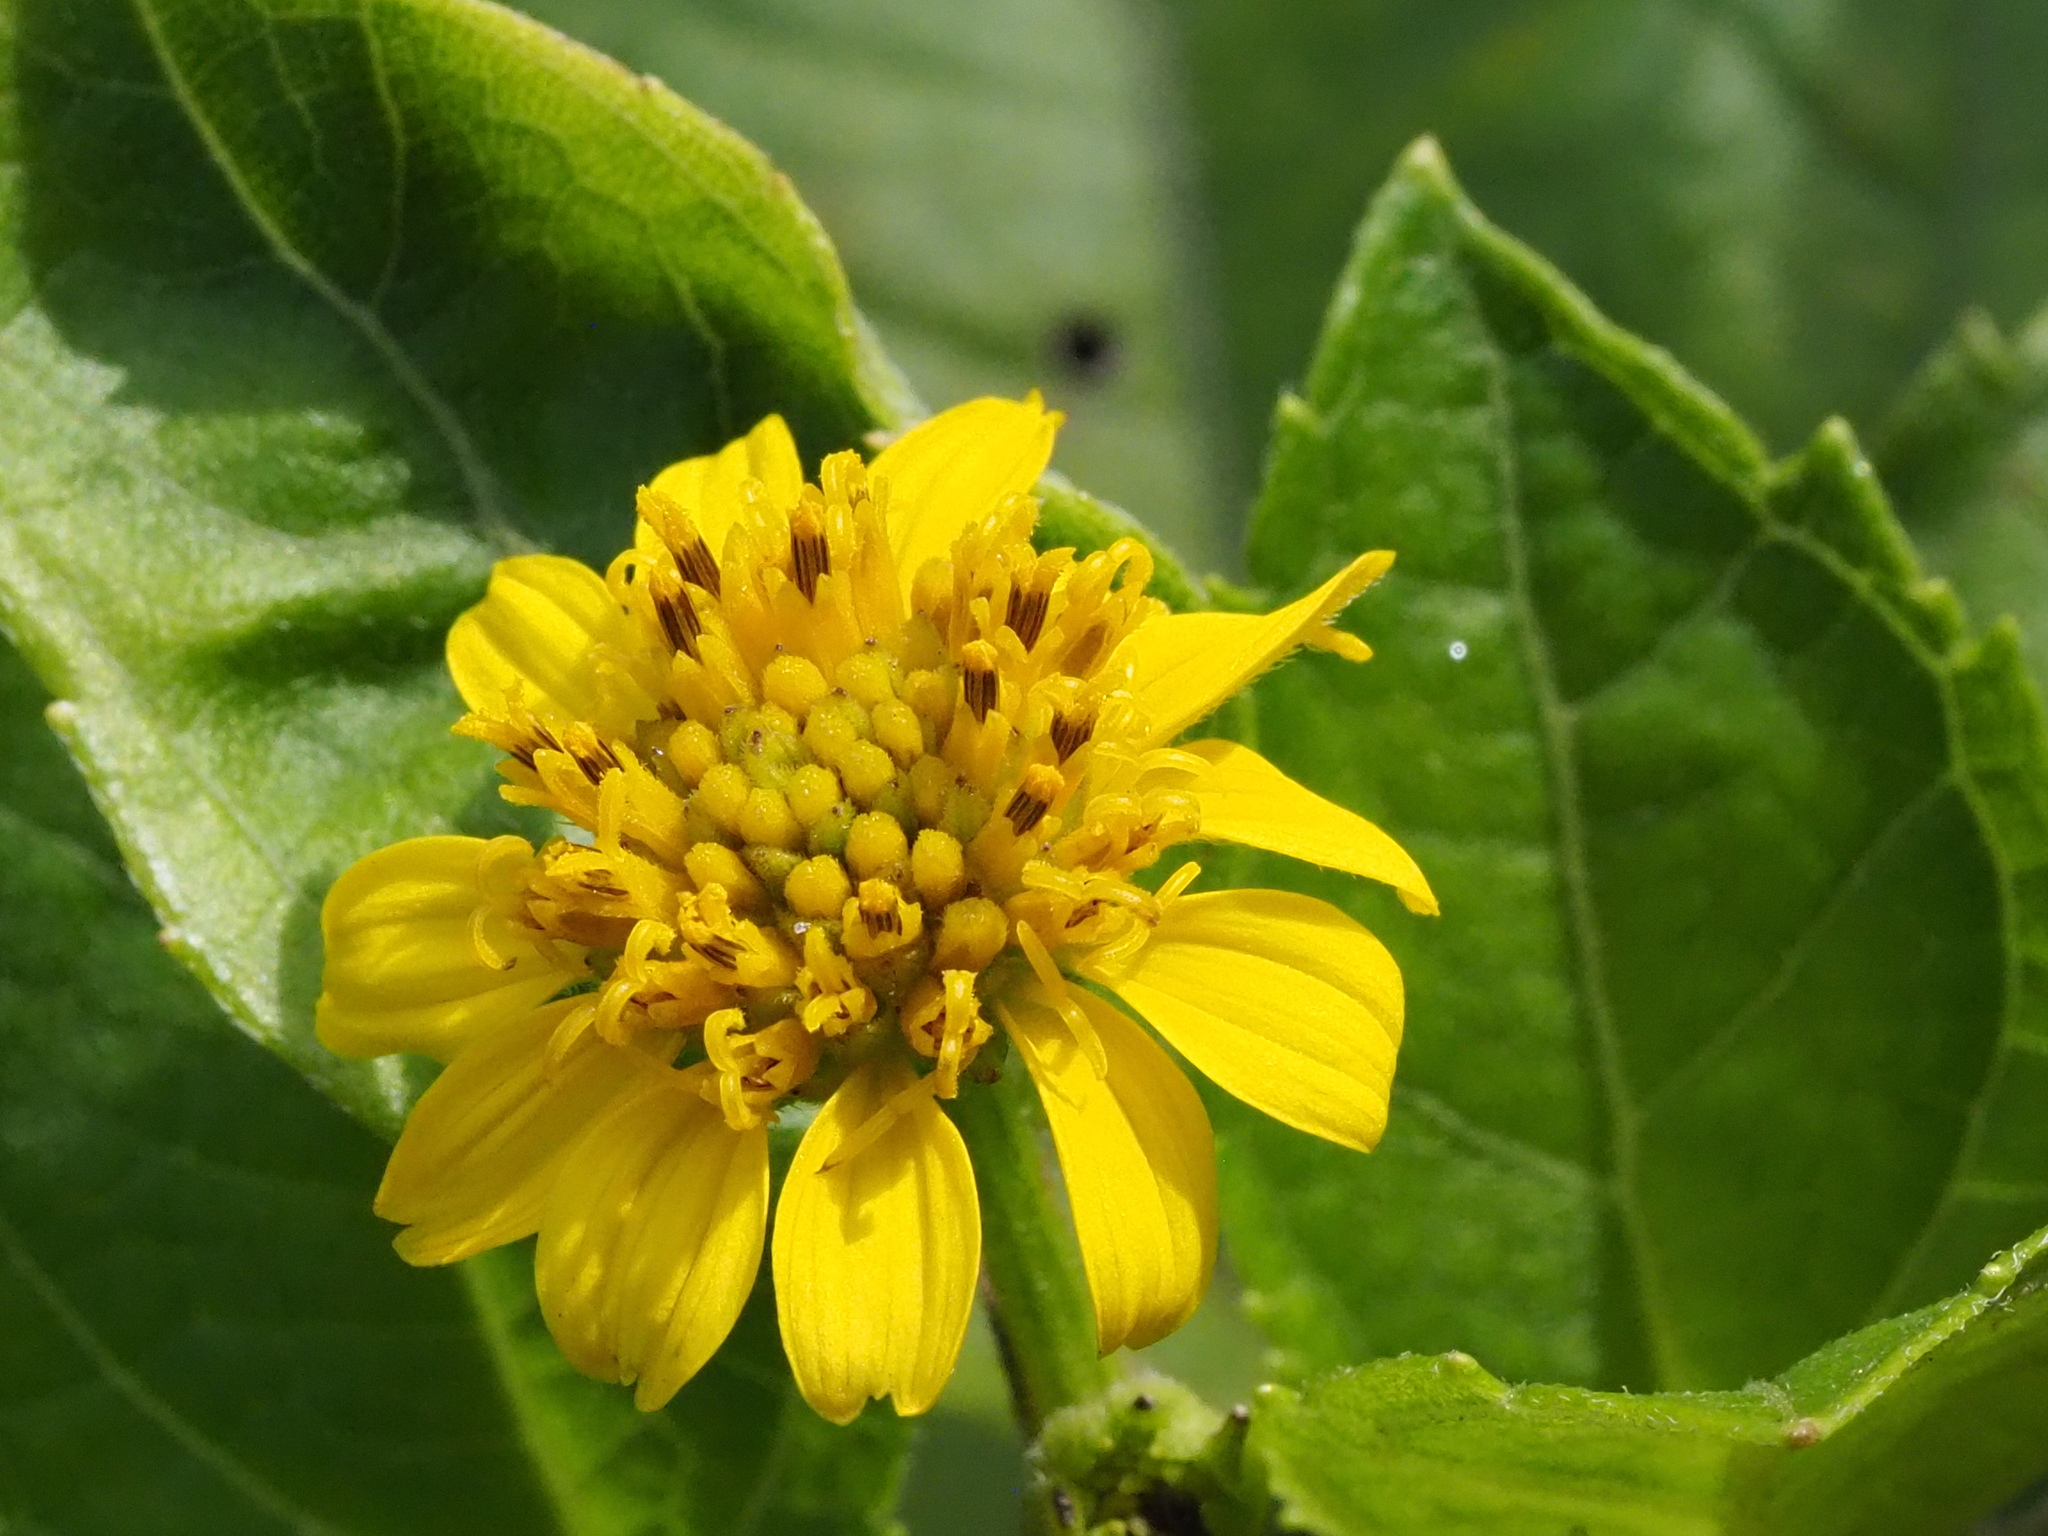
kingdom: Plantae
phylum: Tracheophyta
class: Magnoliopsida
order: Asterales
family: Asteraceae
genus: Wollastonia
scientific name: Wollastonia biflora
